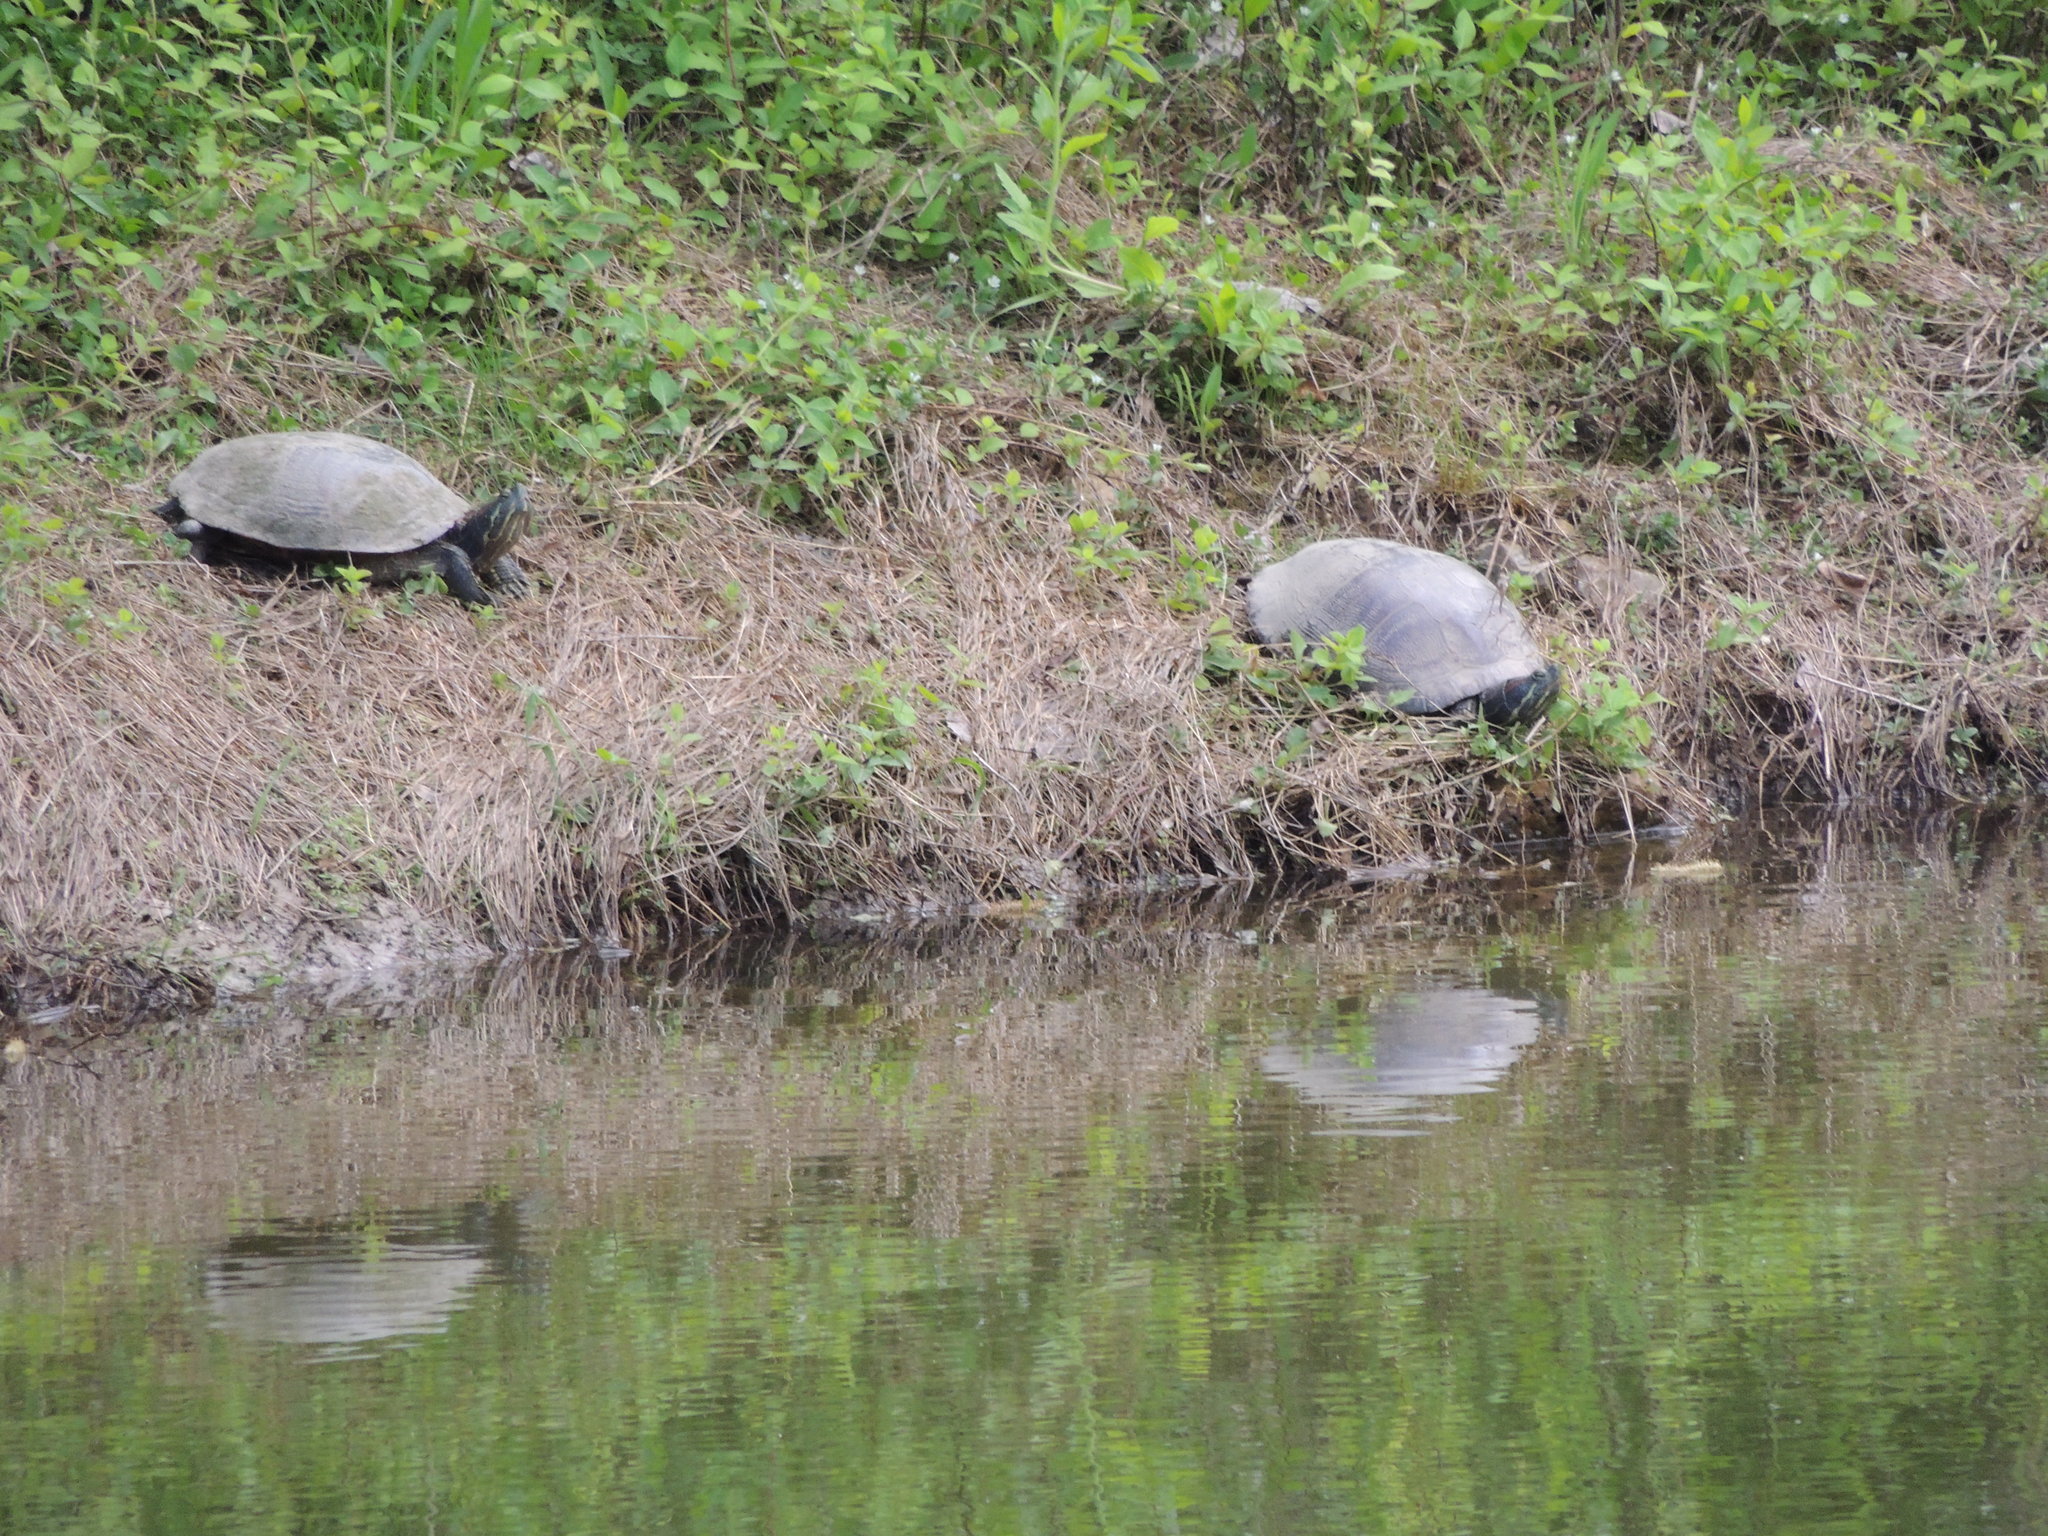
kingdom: Animalia
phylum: Chordata
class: Testudines
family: Emydidae
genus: Trachemys
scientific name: Trachemys scripta
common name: Slider
